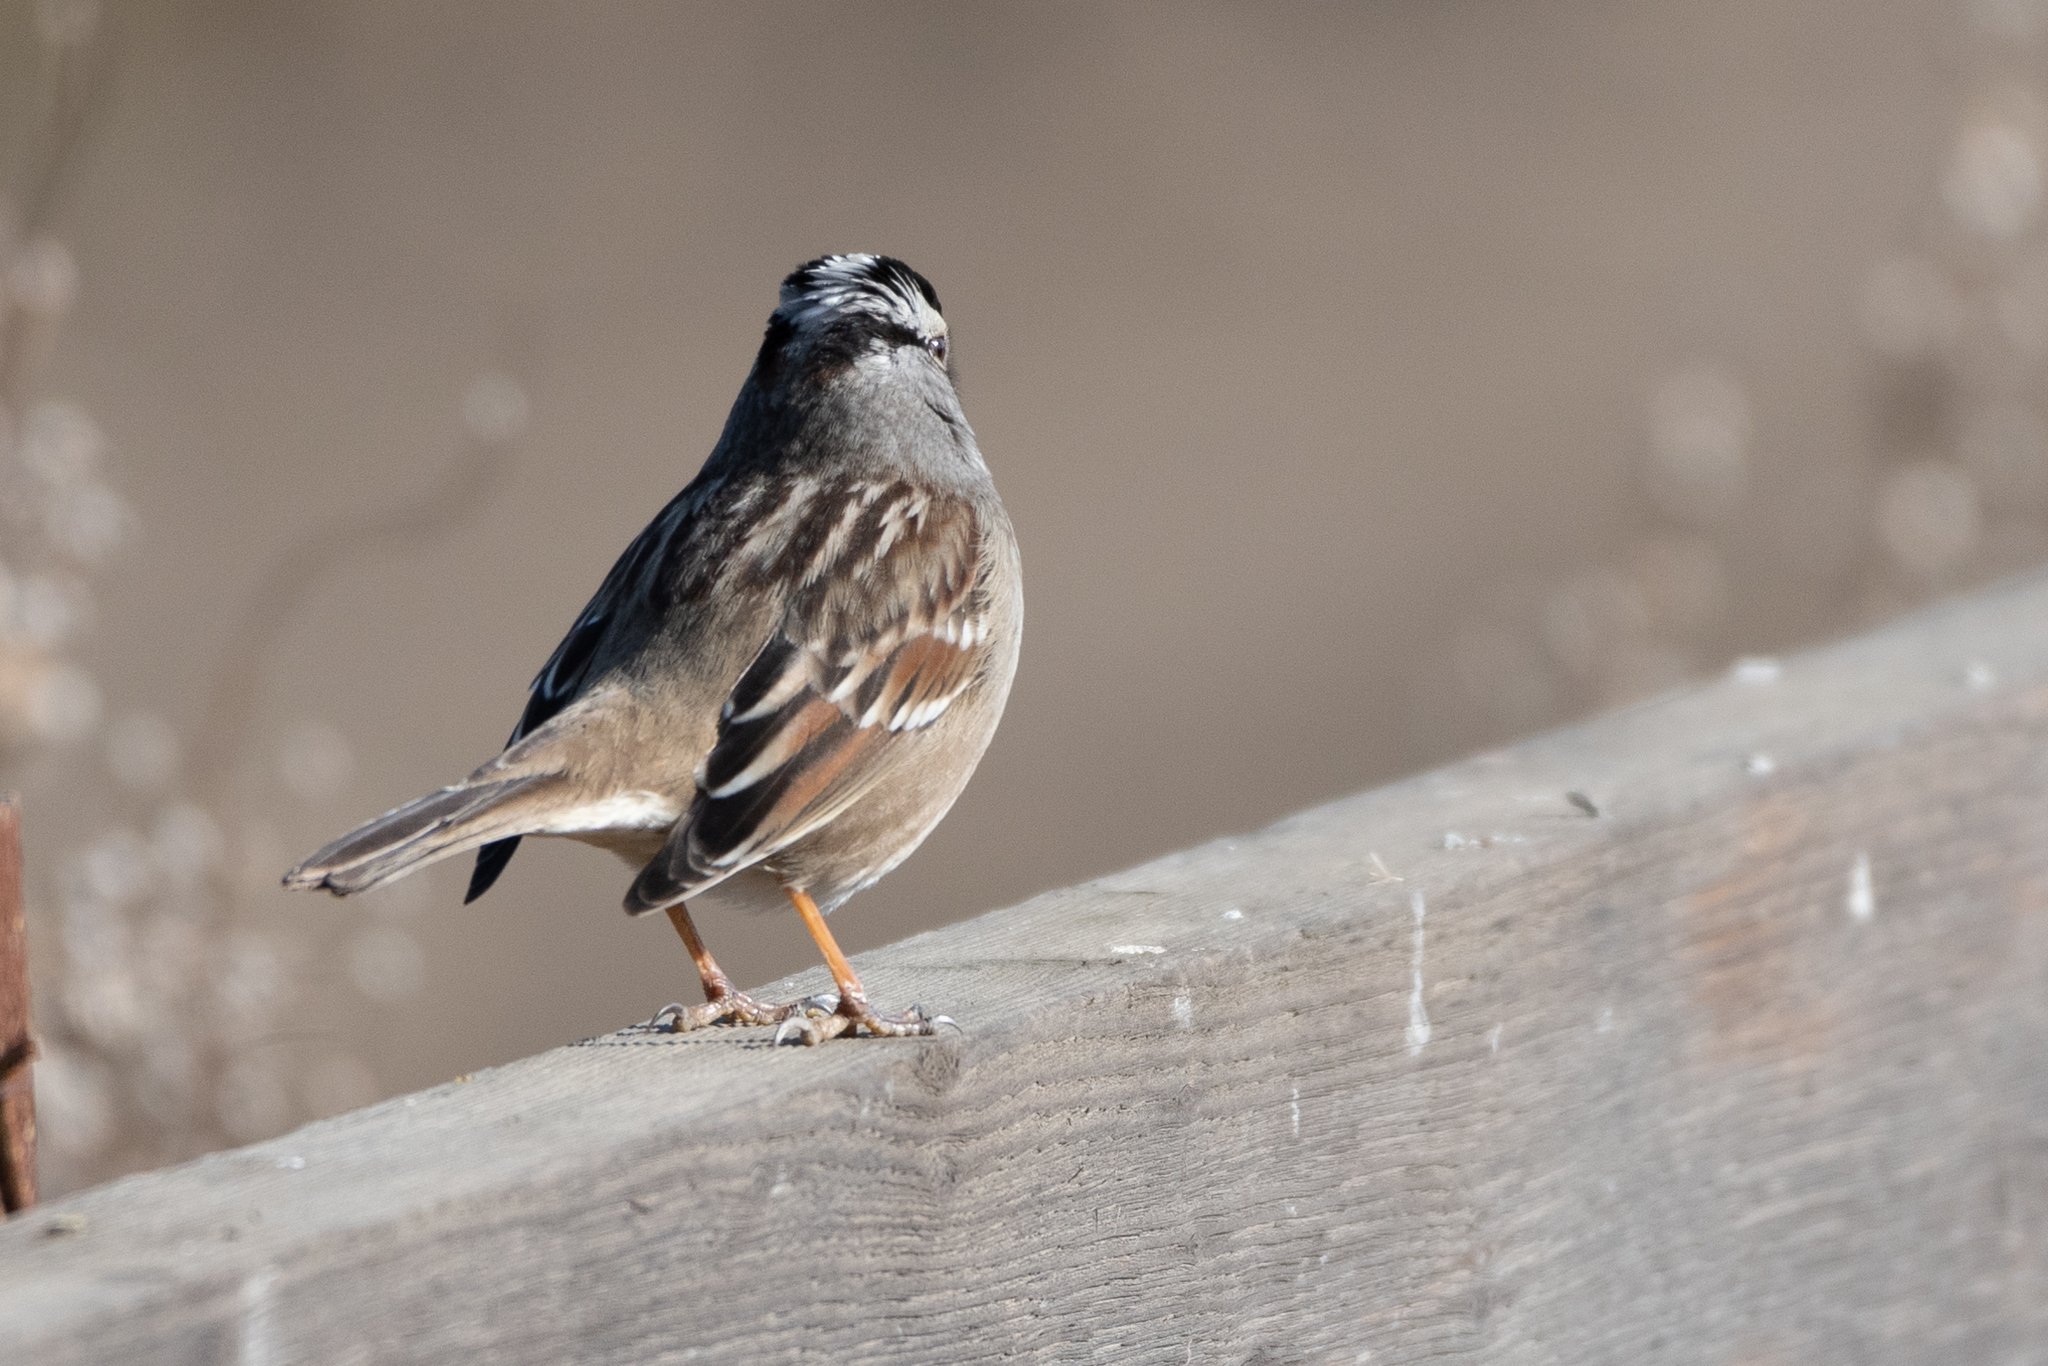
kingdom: Animalia
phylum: Chordata
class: Aves
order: Passeriformes
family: Passerellidae
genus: Zonotrichia
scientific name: Zonotrichia leucophrys
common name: White-crowned sparrow
